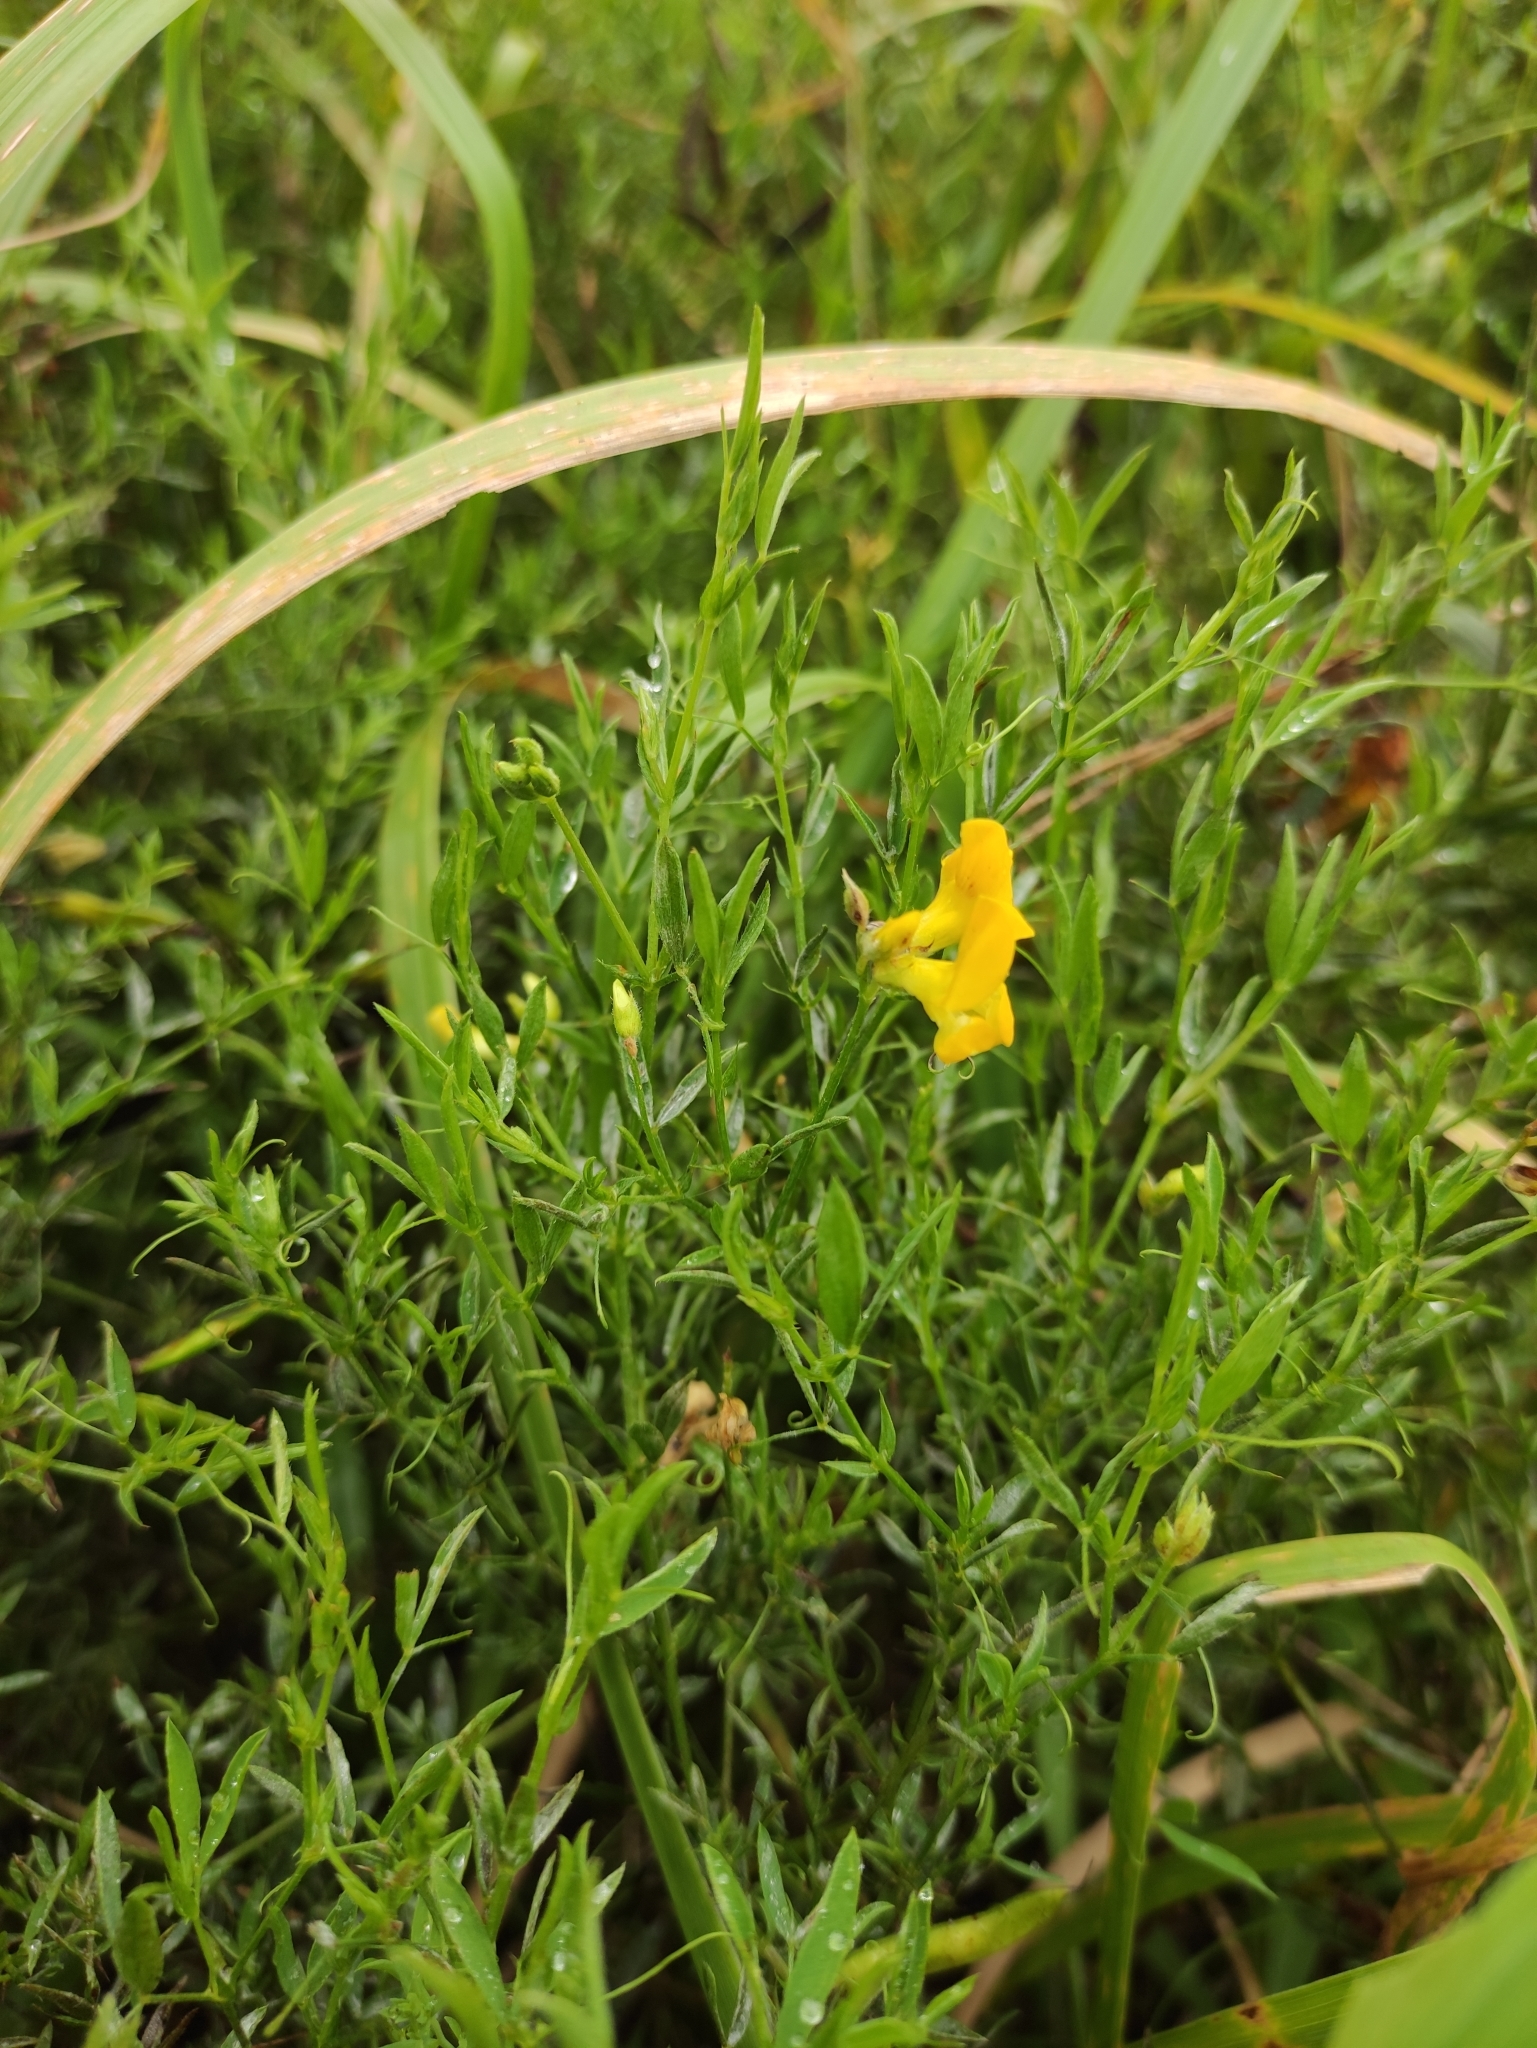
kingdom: Plantae
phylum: Tracheophyta
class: Magnoliopsida
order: Fabales
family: Fabaceae
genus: Lathyrus
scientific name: Lathyrus pratensis
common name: Meadow vetchling
